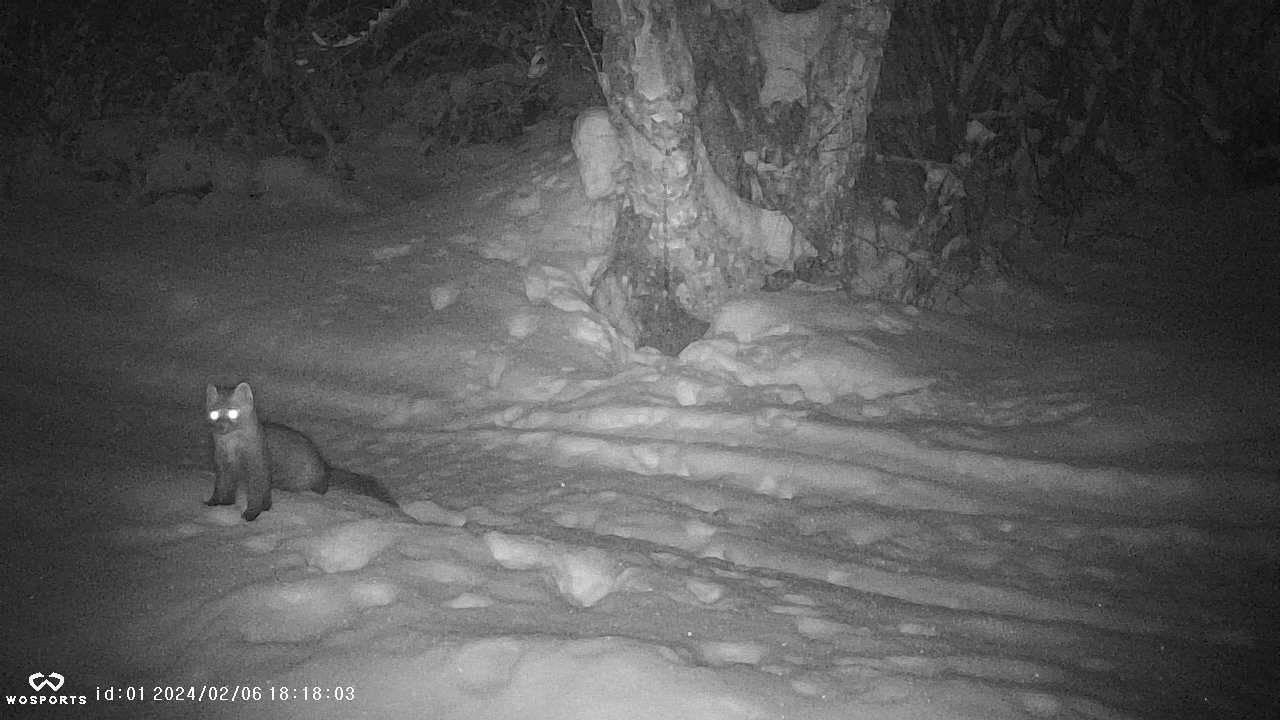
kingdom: Animalia
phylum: Chordata
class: Mammalia
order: Carnivora
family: Mustelidae
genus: Martes
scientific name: Martes americana
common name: American marten
